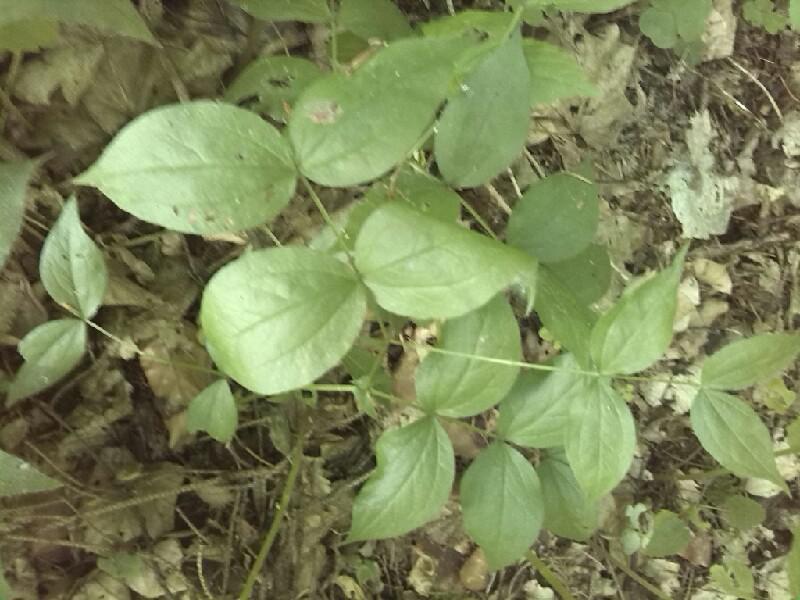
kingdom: Plantae
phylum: Tracheophyta
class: Magnoliopsida
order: Fabales
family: Fabaceae
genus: Lathyrus
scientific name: Lathyrus vernus
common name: Spring pea
